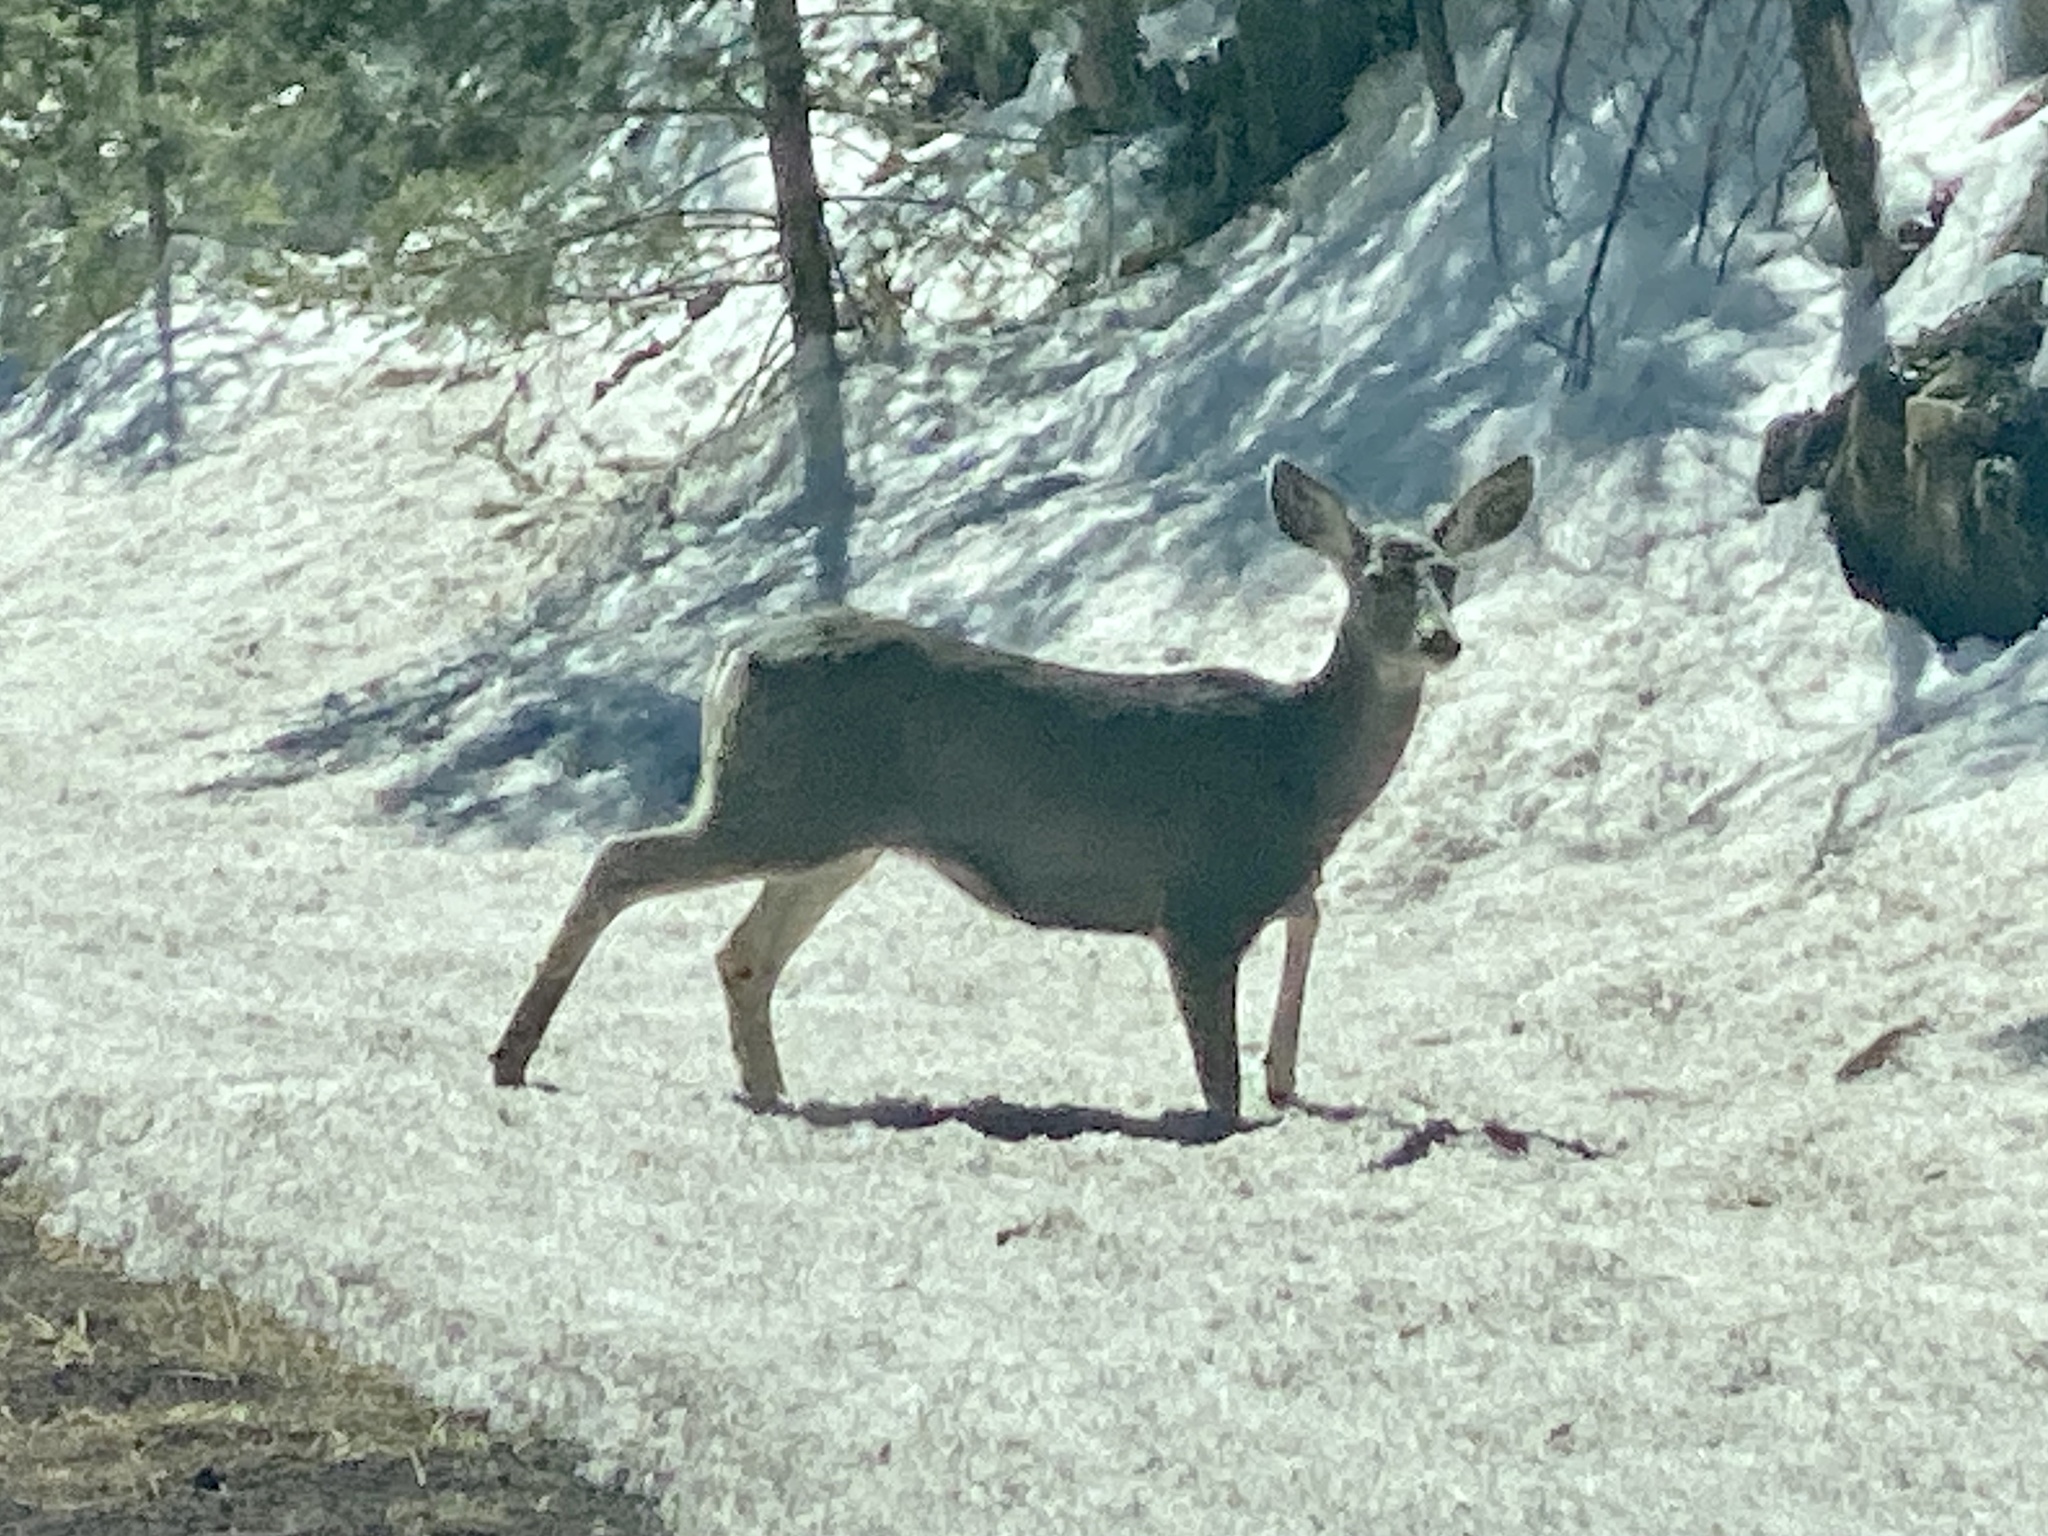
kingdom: Animalia
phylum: Chordata
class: Mammalia
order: Artiodactyla
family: Cervidae
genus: Odocoileus
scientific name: Odocoileus hemionus
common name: Mule deer
